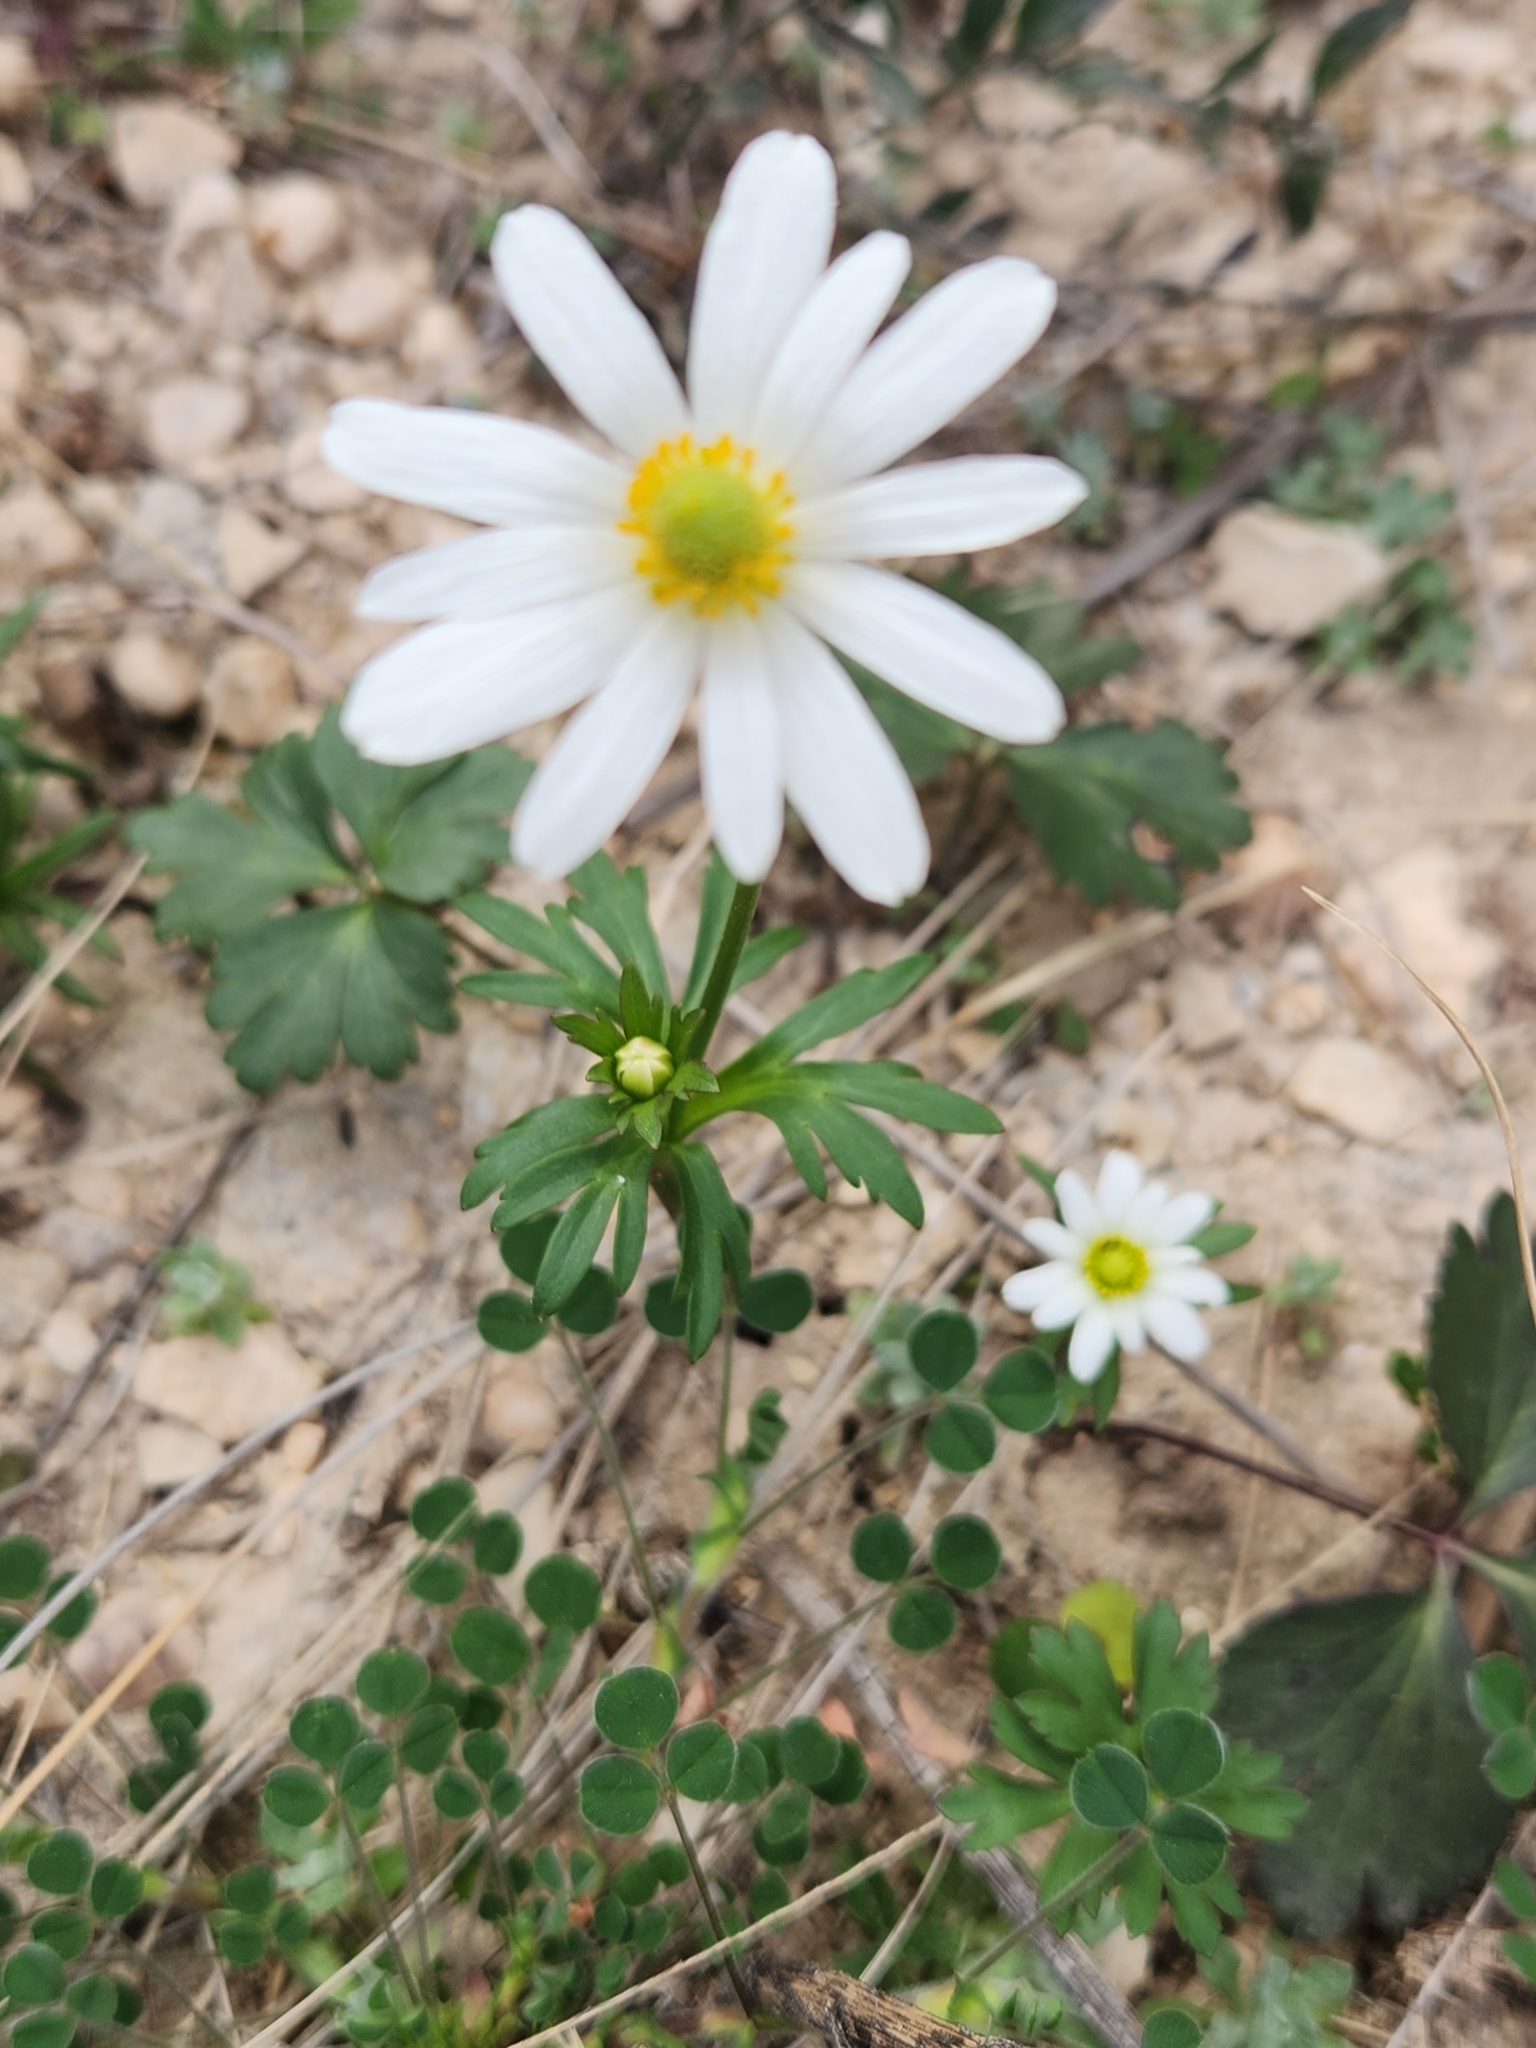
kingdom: Plantae
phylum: Tracheophyta
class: Magnoliopsida
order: Ranunculales
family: Ranunculaceae
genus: Anemone
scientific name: Anemone edwardsiana
